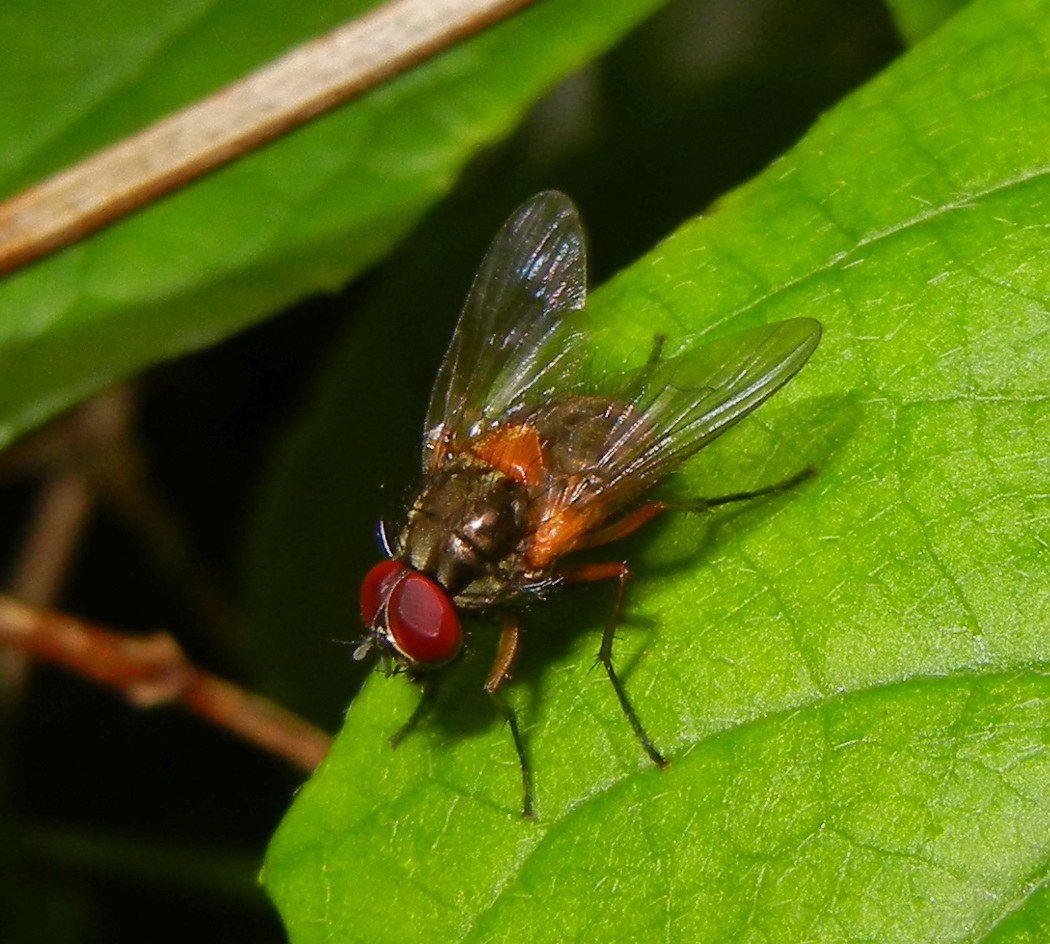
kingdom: Animalia
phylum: Arthropoda
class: Insecta
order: Diptera
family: Muscidae
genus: Mydaea
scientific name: Mydaea corni
